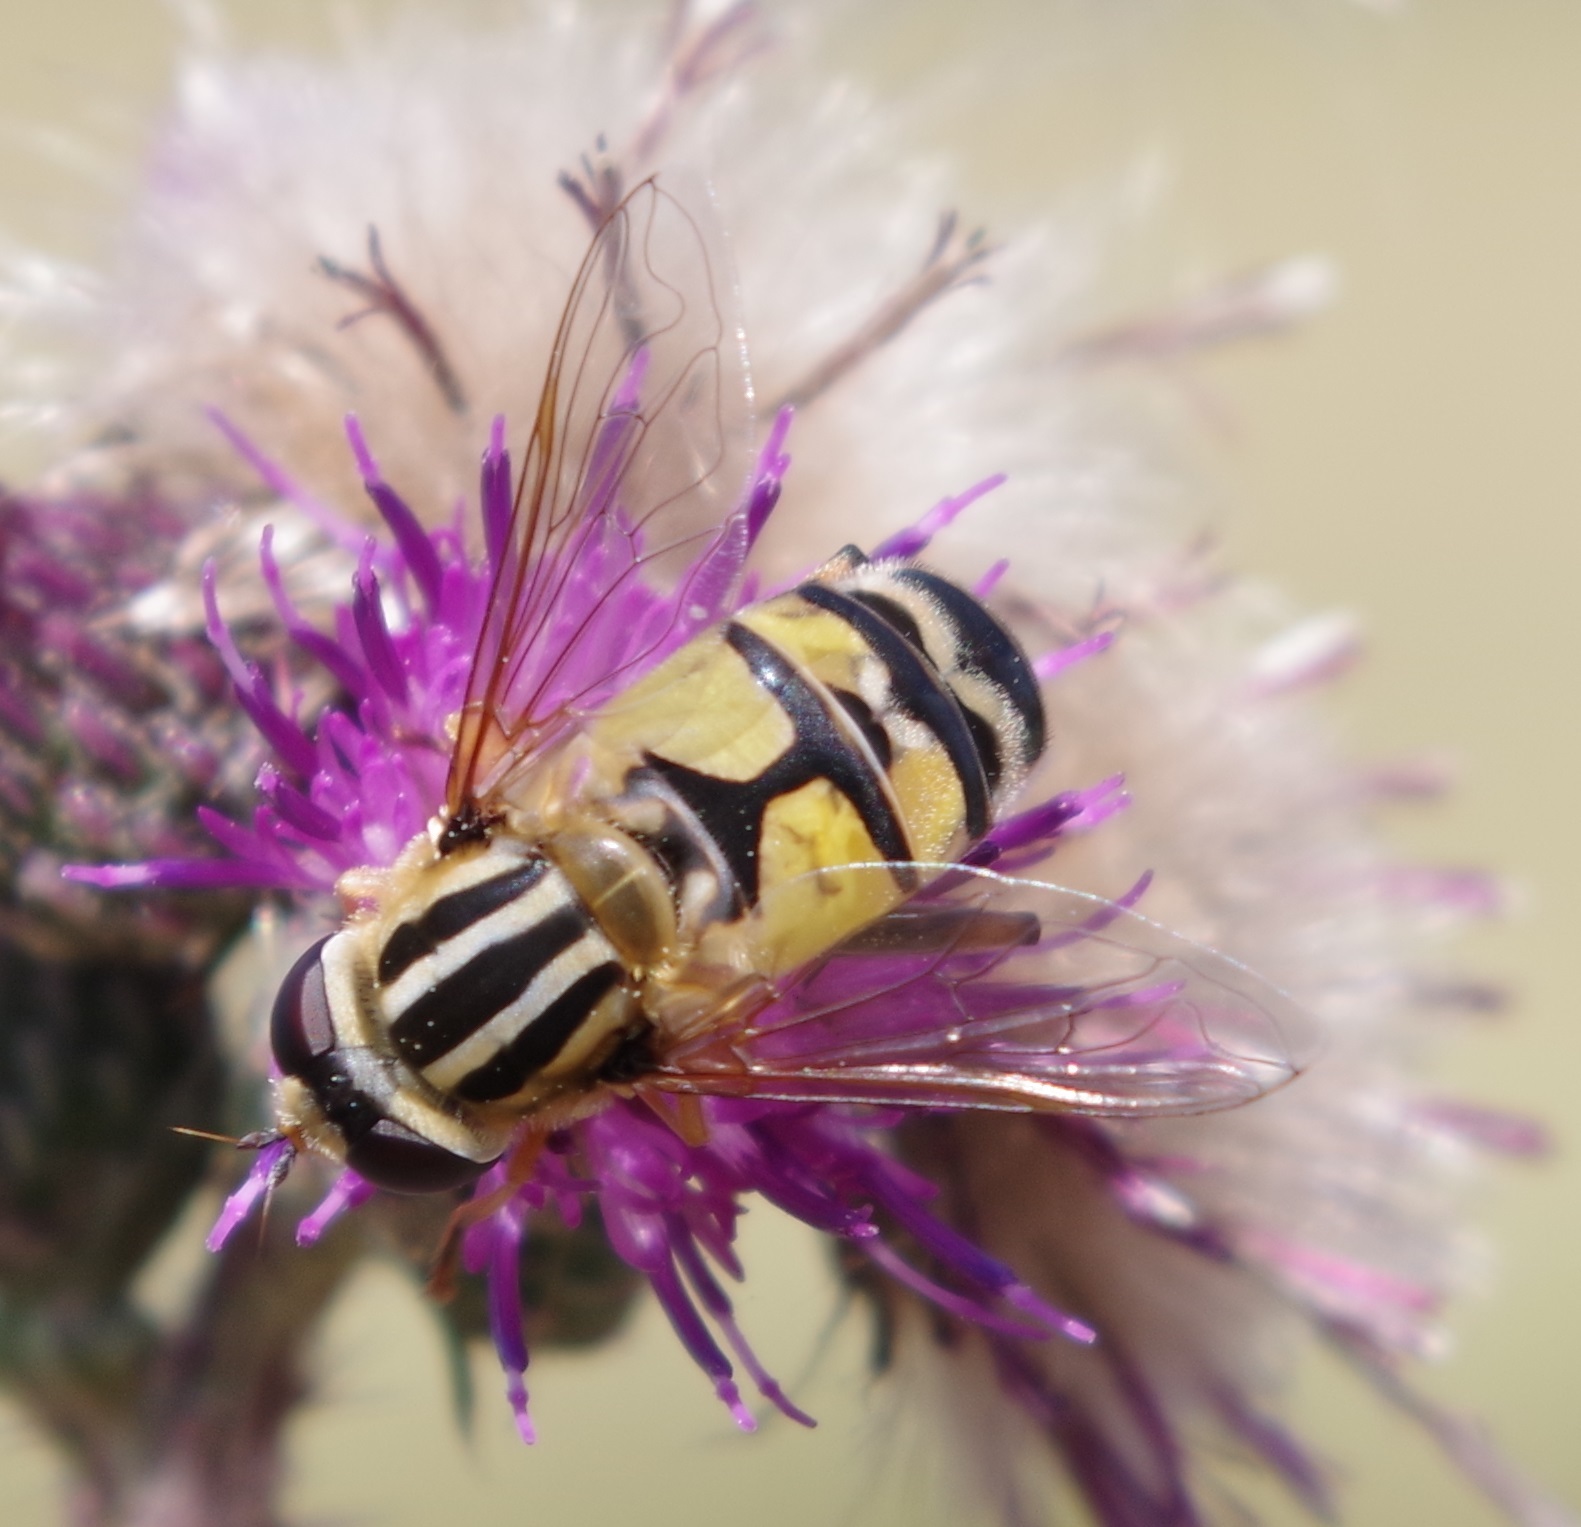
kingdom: Animalia
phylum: Arthropoda
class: Insecta
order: Diptera
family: Syrphidae
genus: Helophilus
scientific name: Helophilus trivittatus
